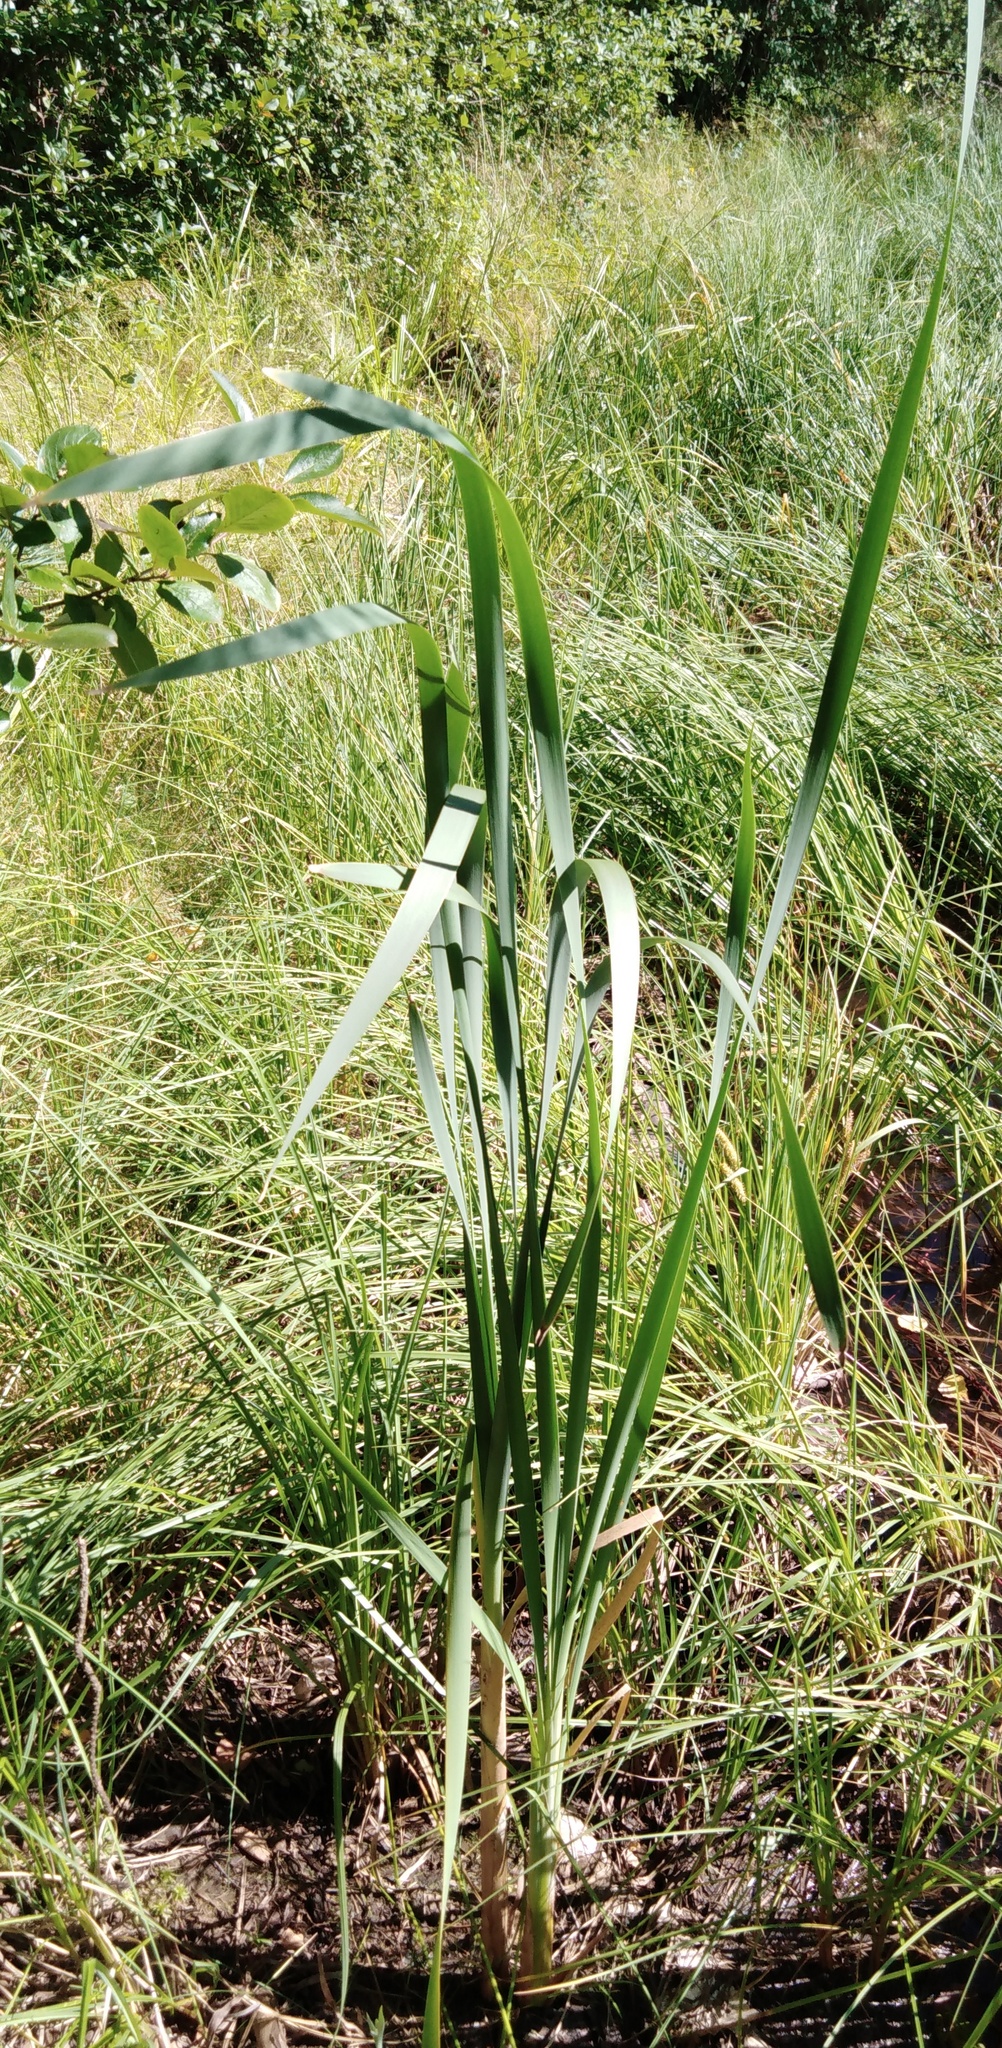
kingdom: Plantae
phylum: Tracheophyta
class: Liliopsida
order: Poales
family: Typhaceae
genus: Typha
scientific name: Typha latifolia
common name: Broadleaf cattail
